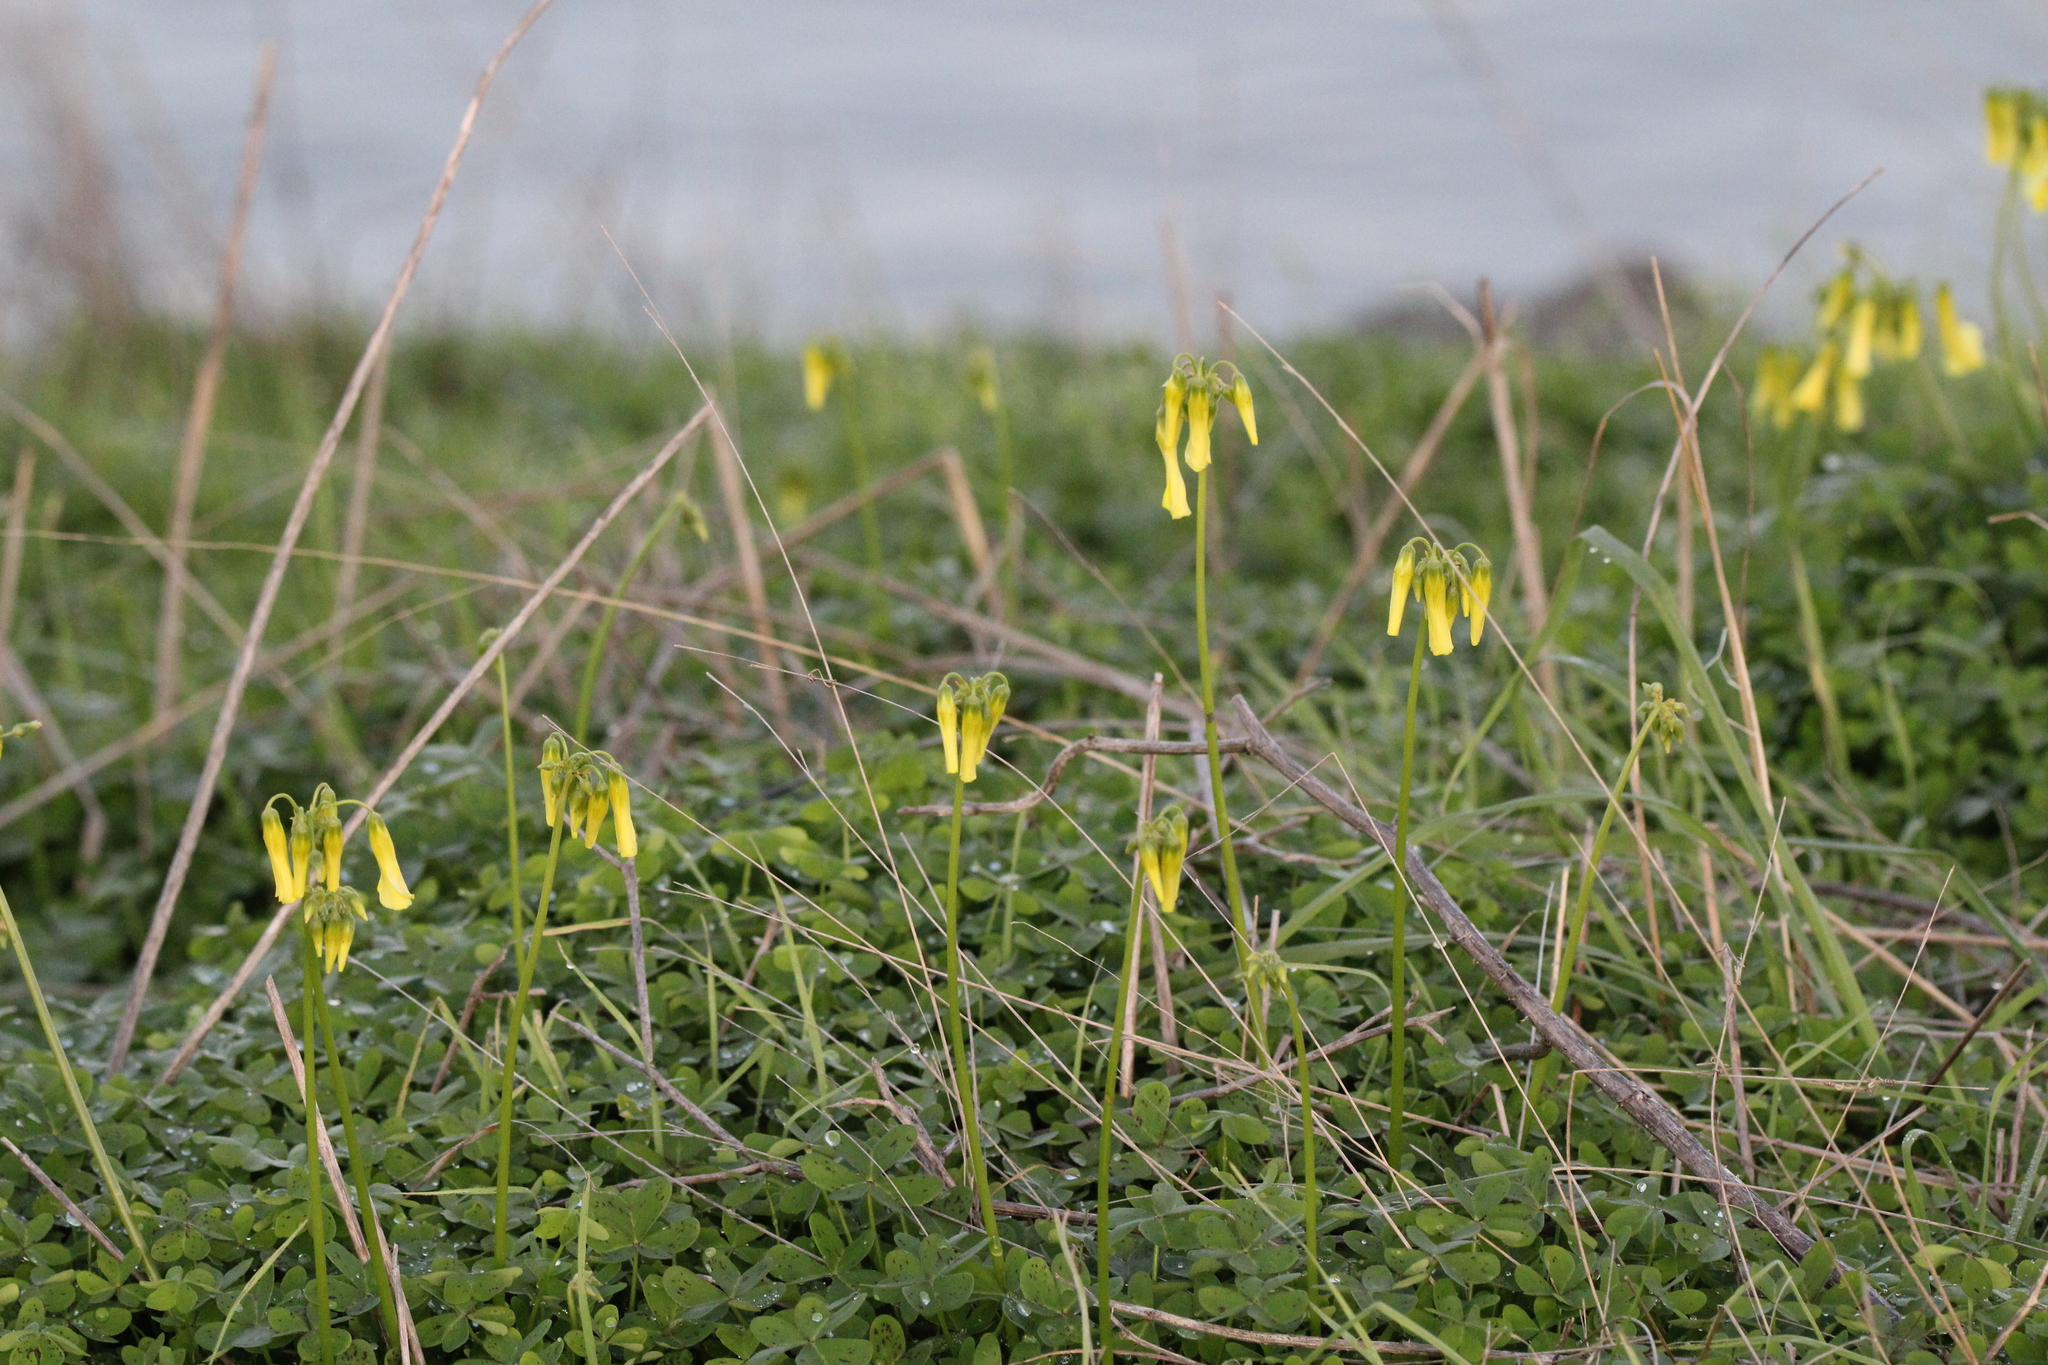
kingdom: Plantae
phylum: Tracheophyta
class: Magnoliopsida
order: Oxalidales
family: Oxalidaceae
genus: Oxalis
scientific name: Oxalis pes-caprae
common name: Bermuda-buttercup
